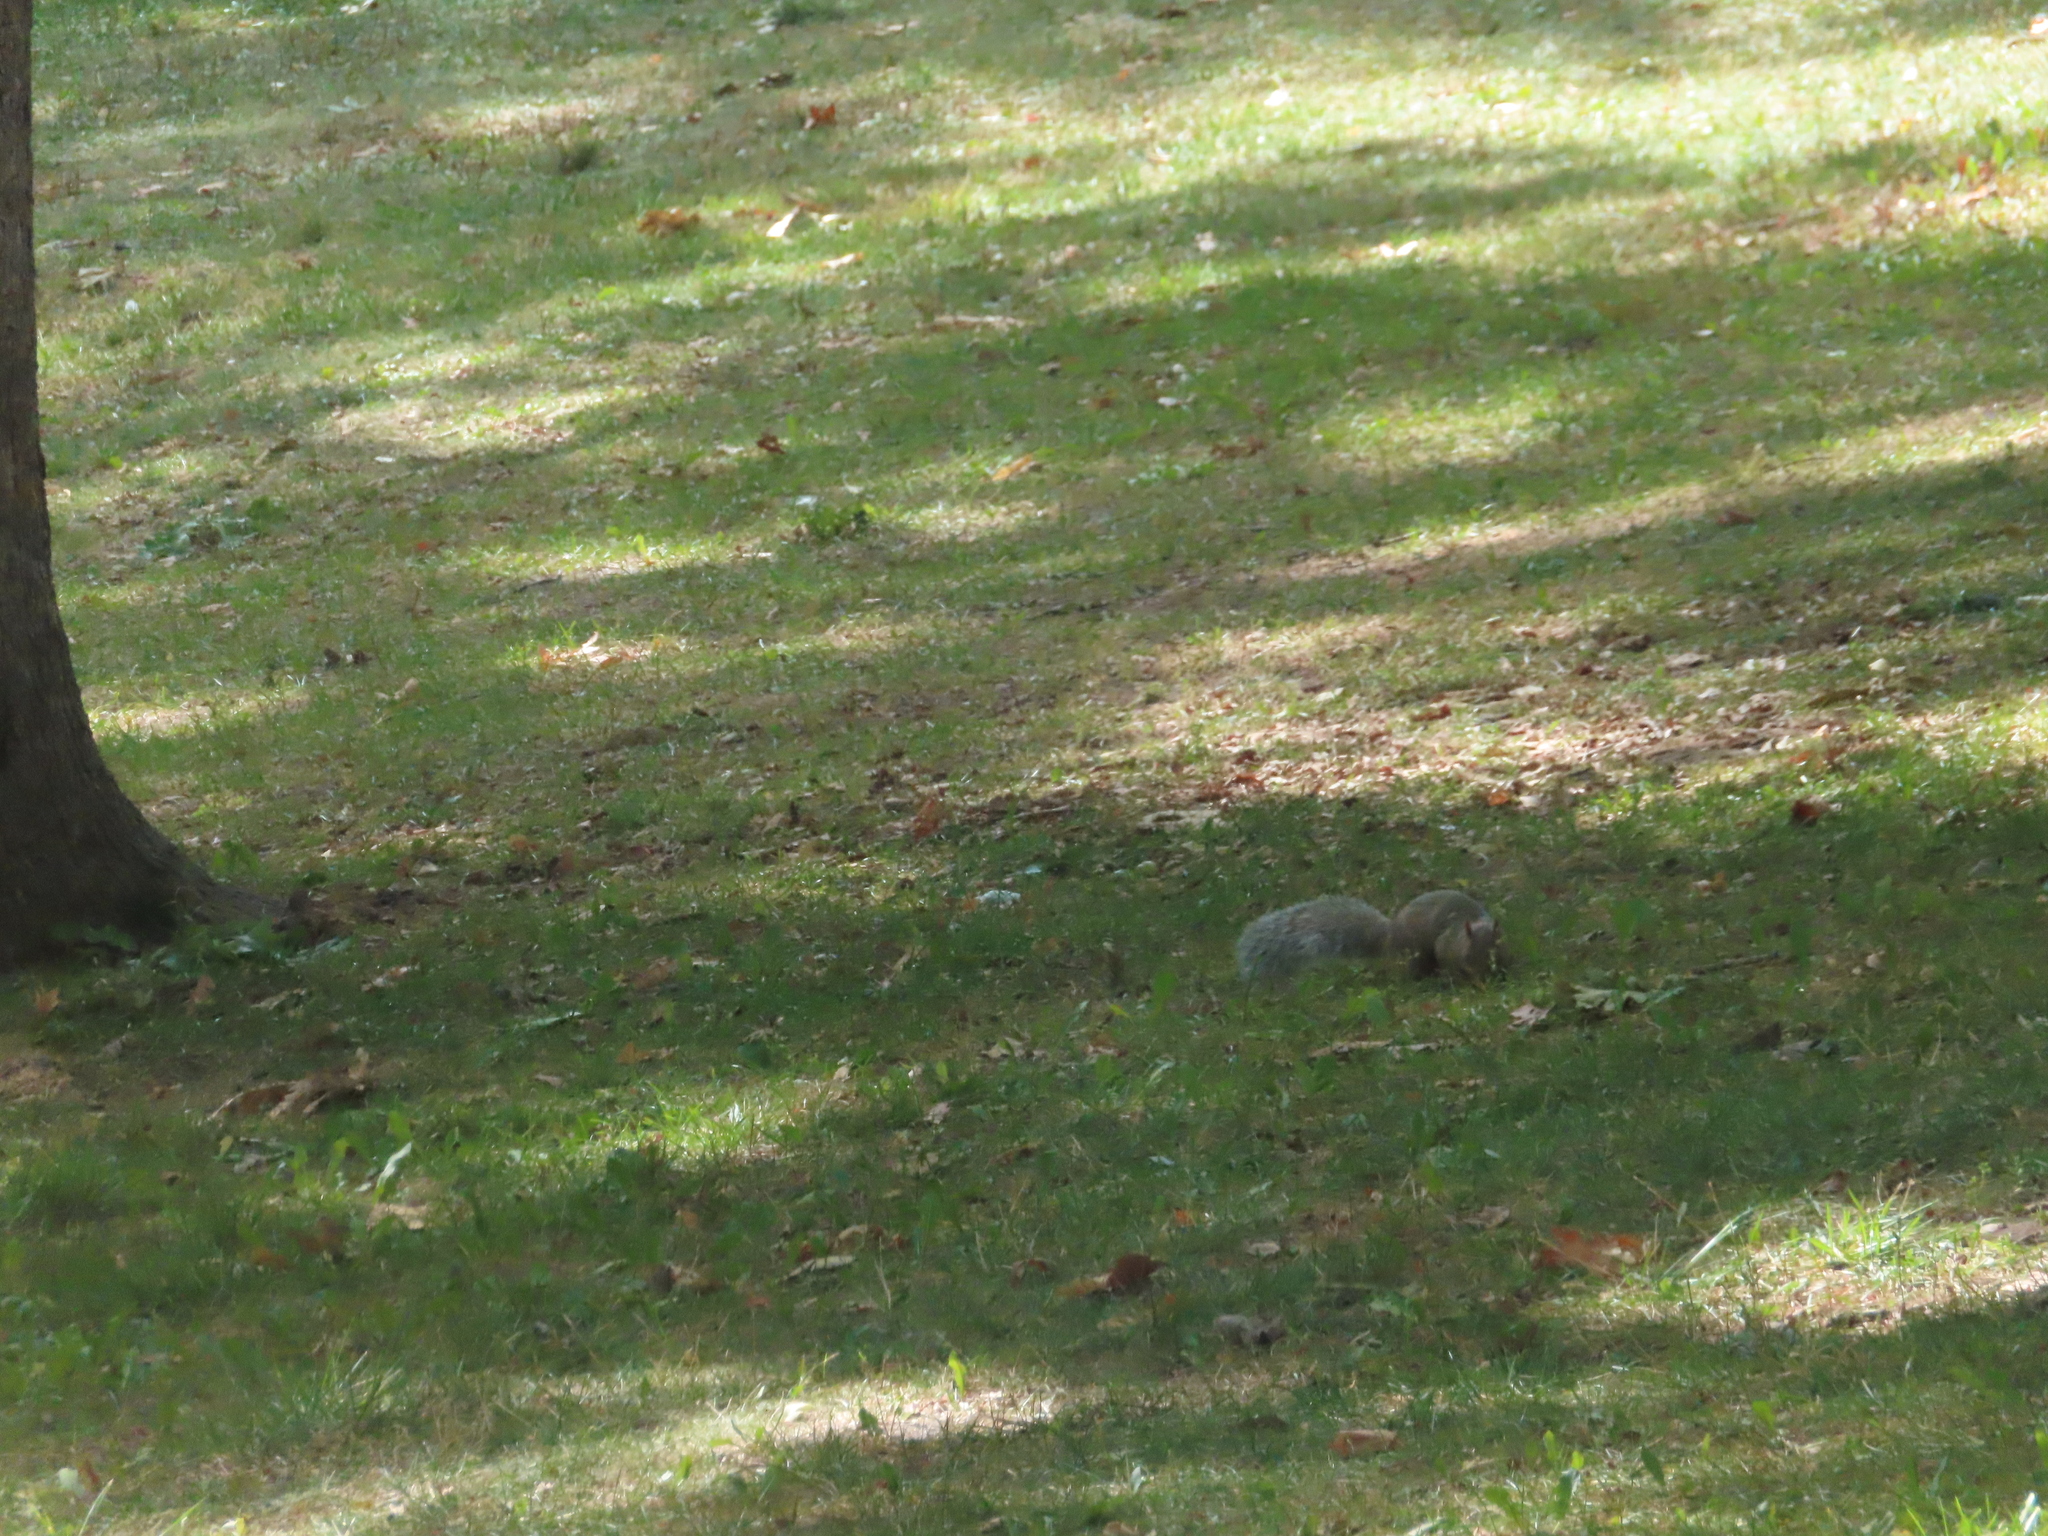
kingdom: Animalia
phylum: Chordata
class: Mammalia
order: Rodentia
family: Sciuridae
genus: Sciurus
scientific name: Sciurus carolinensis
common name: Eastern gray squirrel
